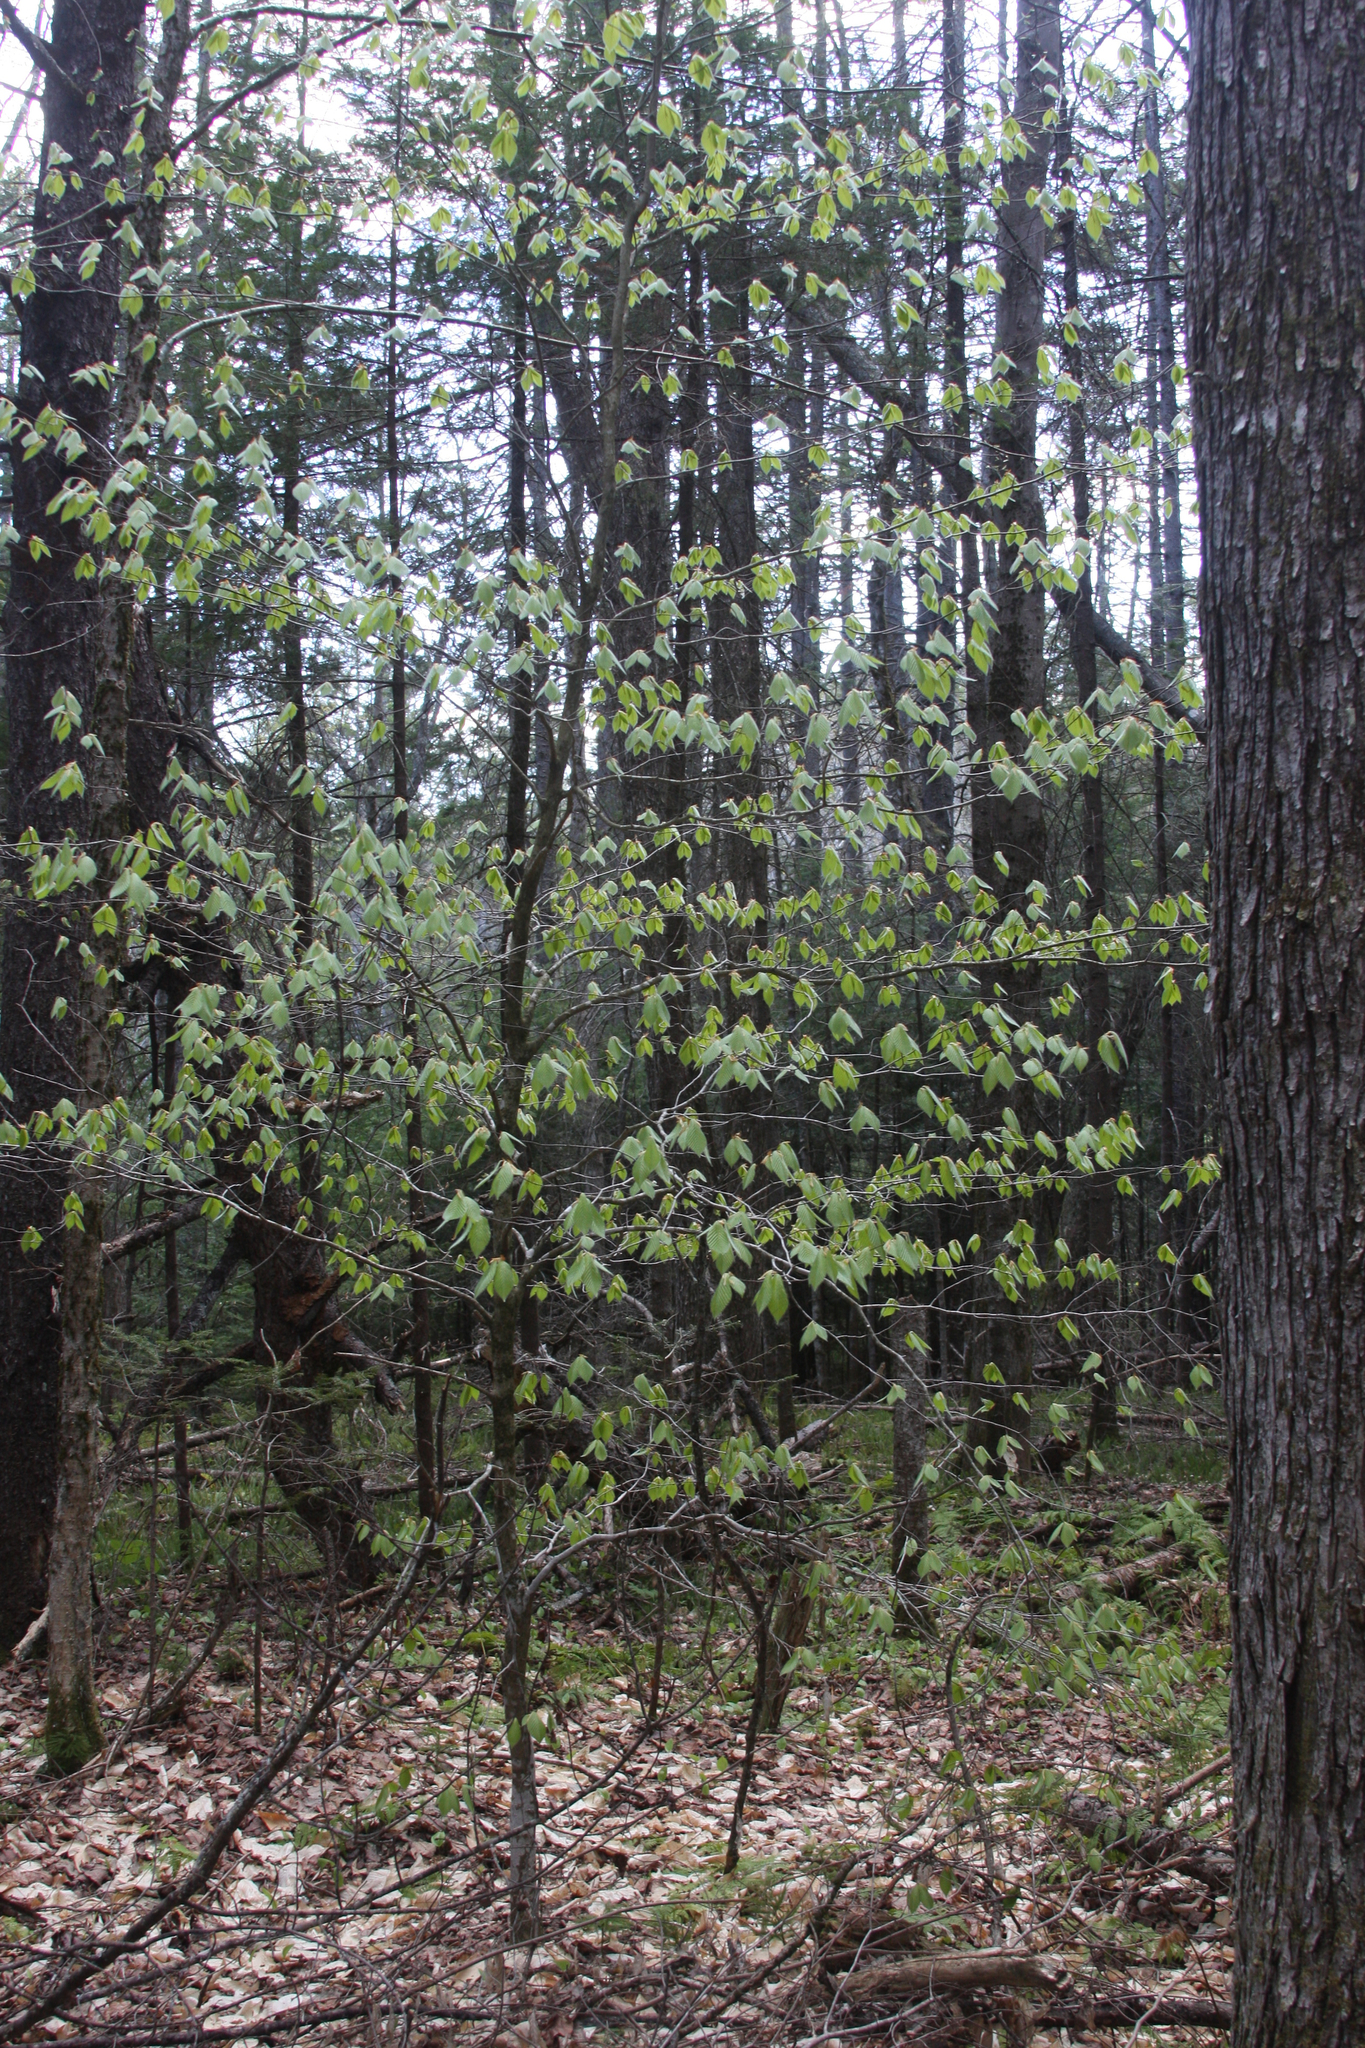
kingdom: Plantae
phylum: Tracheophyta
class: Magnoliopsida
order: Fagales
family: Fagaceae
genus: Fagus
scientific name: Fagus grandifolia
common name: American beech
